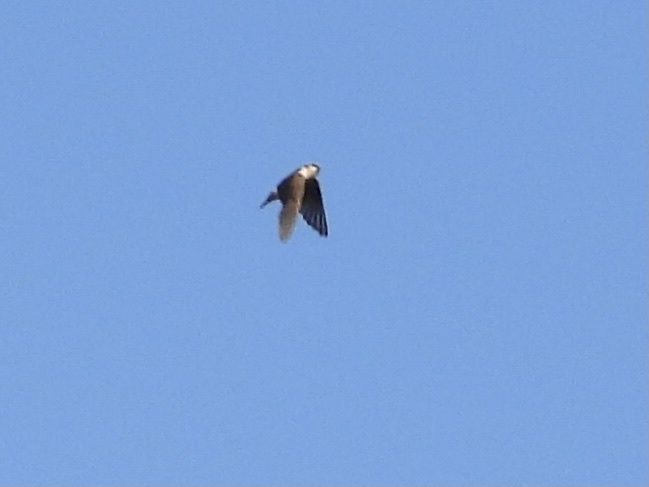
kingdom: Animalia
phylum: Chordata
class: Aves
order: Passeriformes
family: Hirundinidae
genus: Tachycineta
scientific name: Tachycineta thalassina
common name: Violet-green swallow
